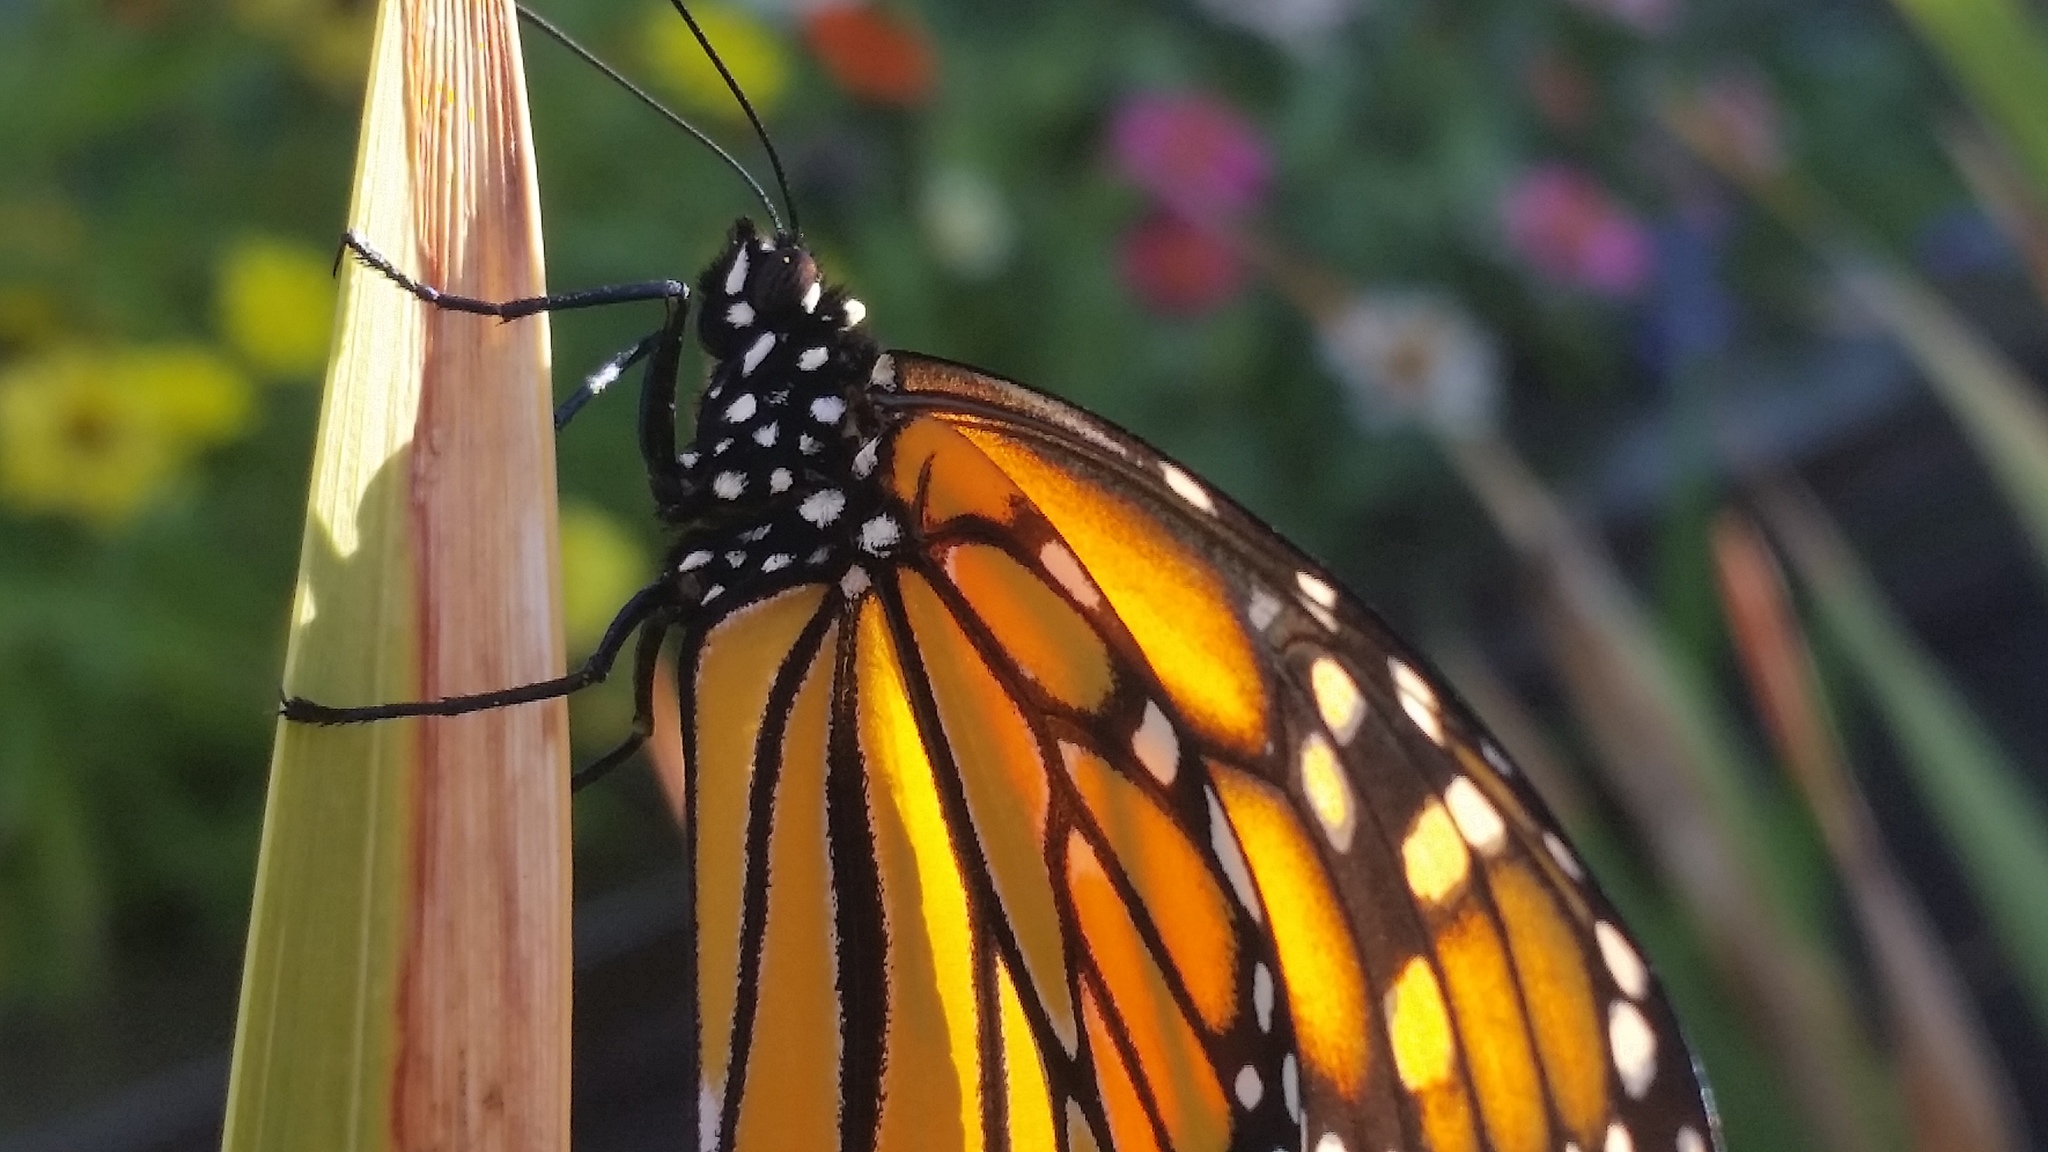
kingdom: Animalia
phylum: Arthropoda
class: Insecta
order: Lepidoptera
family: Nymphalidae
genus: Danaus
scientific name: Danaus plexippus
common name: Monarch
